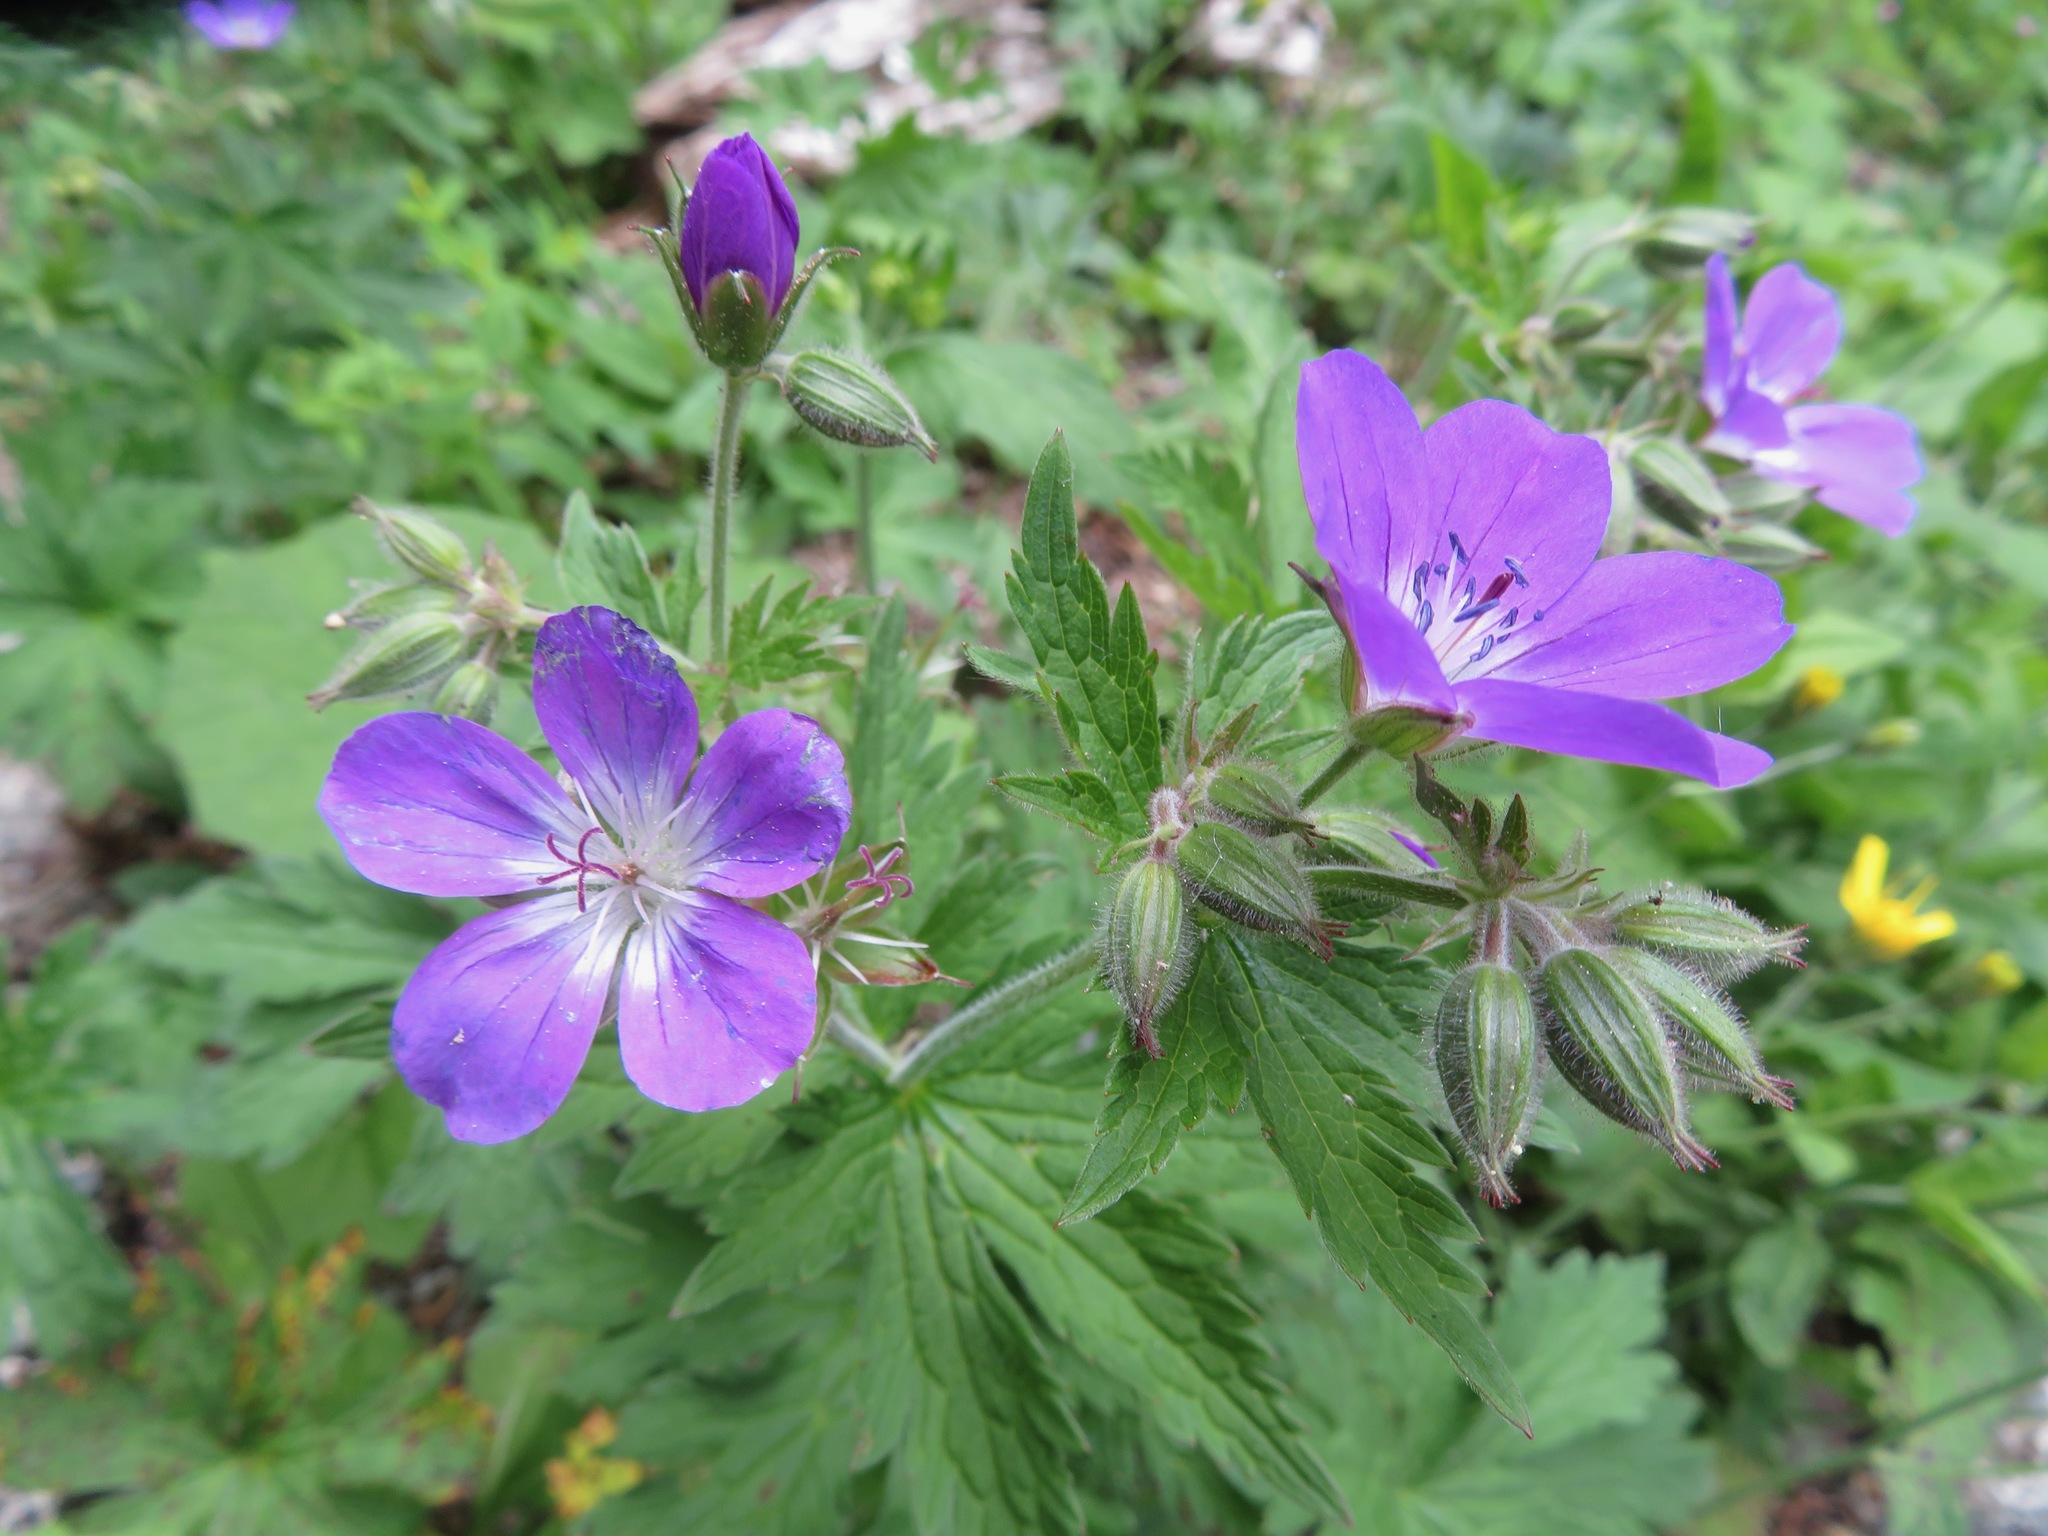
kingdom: Plantae
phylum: Tracheophyta
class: Magnoliopsida
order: Geraniales
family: Geraniaceae
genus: Geranium
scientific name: Geranium sylvaticum
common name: Wood crane's-bill
